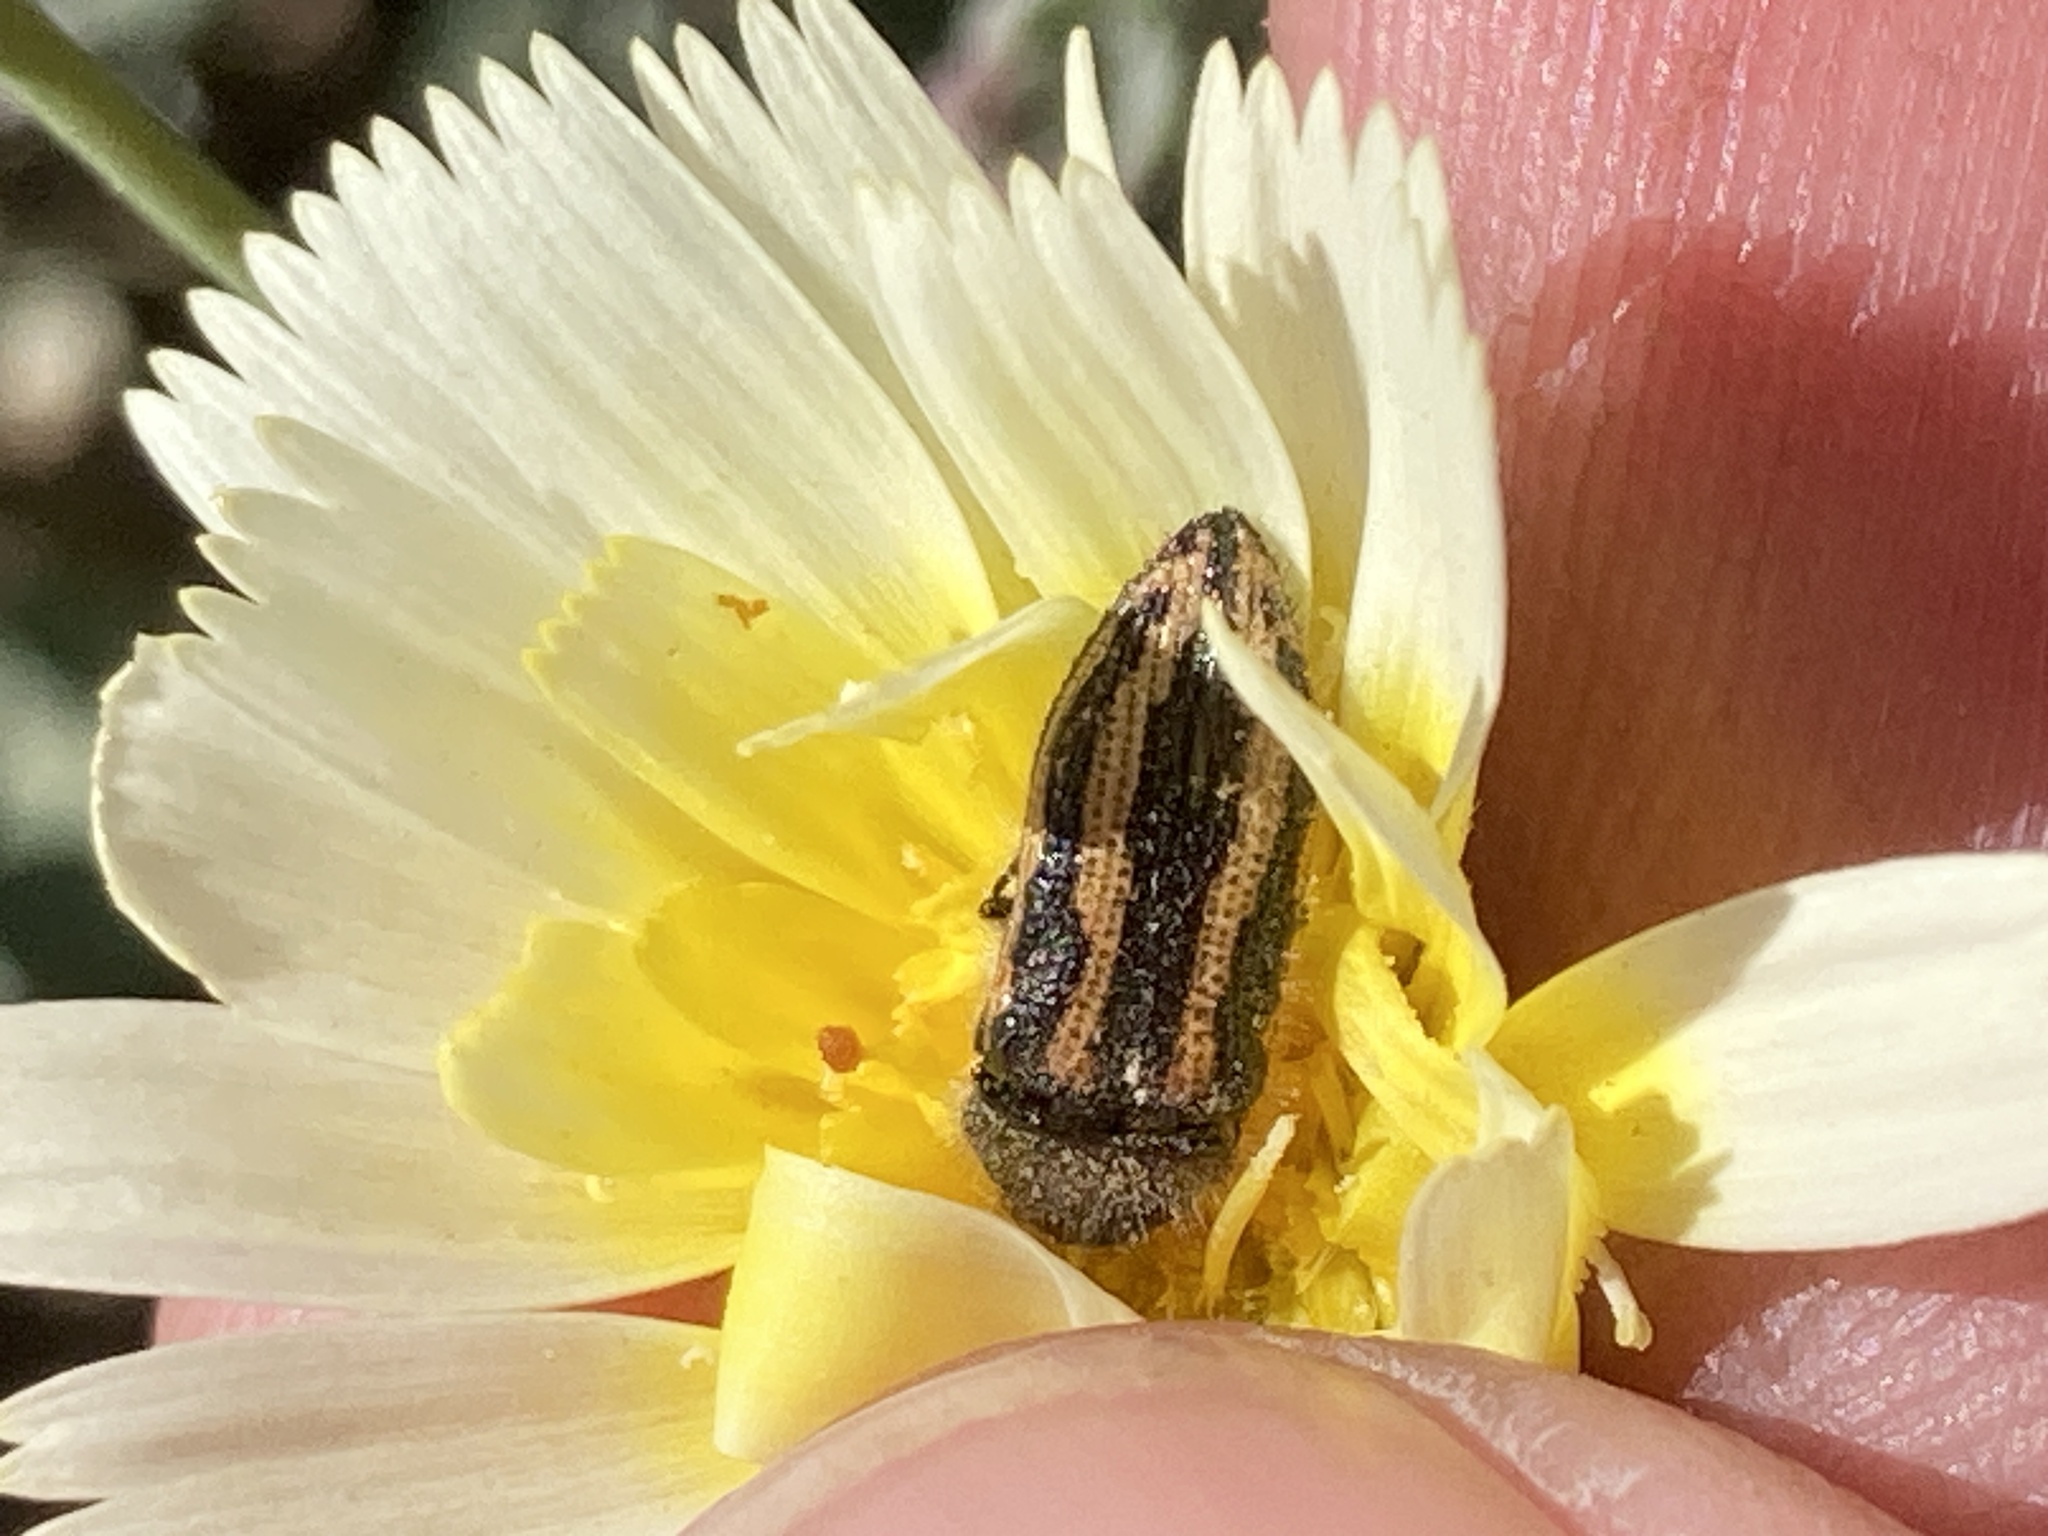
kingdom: Animalia
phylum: Arthropoda
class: Insecta
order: Coleoptera
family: Buprestidae
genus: Acmaeodera
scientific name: Acmaeodera nigrovittata
